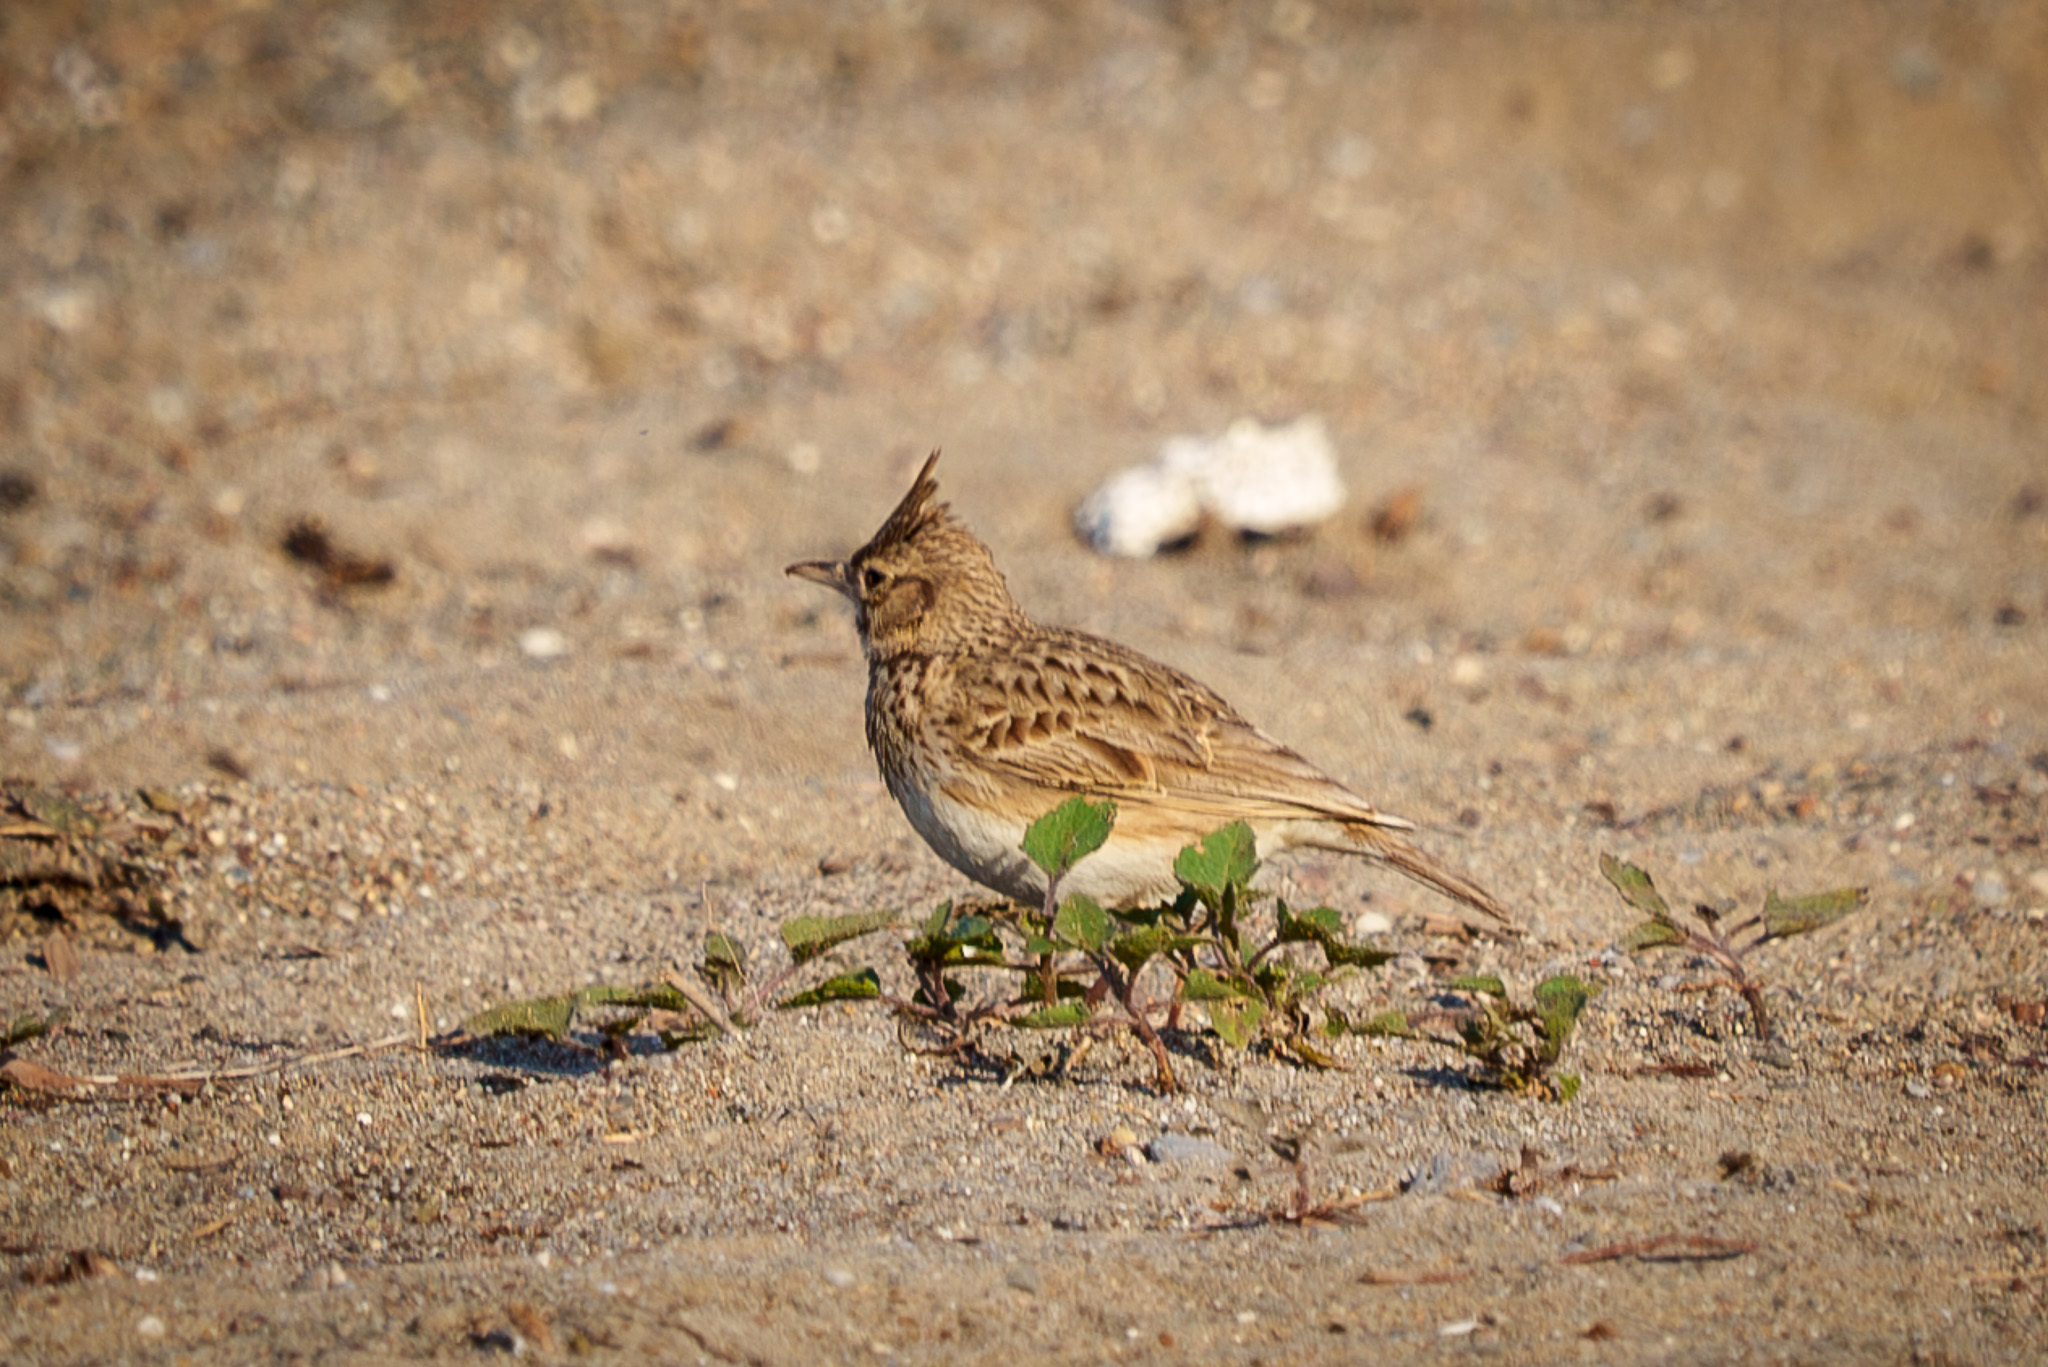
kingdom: Animalia
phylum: Chordata
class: Aves
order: Passeriformes
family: Alaudidae
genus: Galerida
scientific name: Galerida cristata
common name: Crested lark
